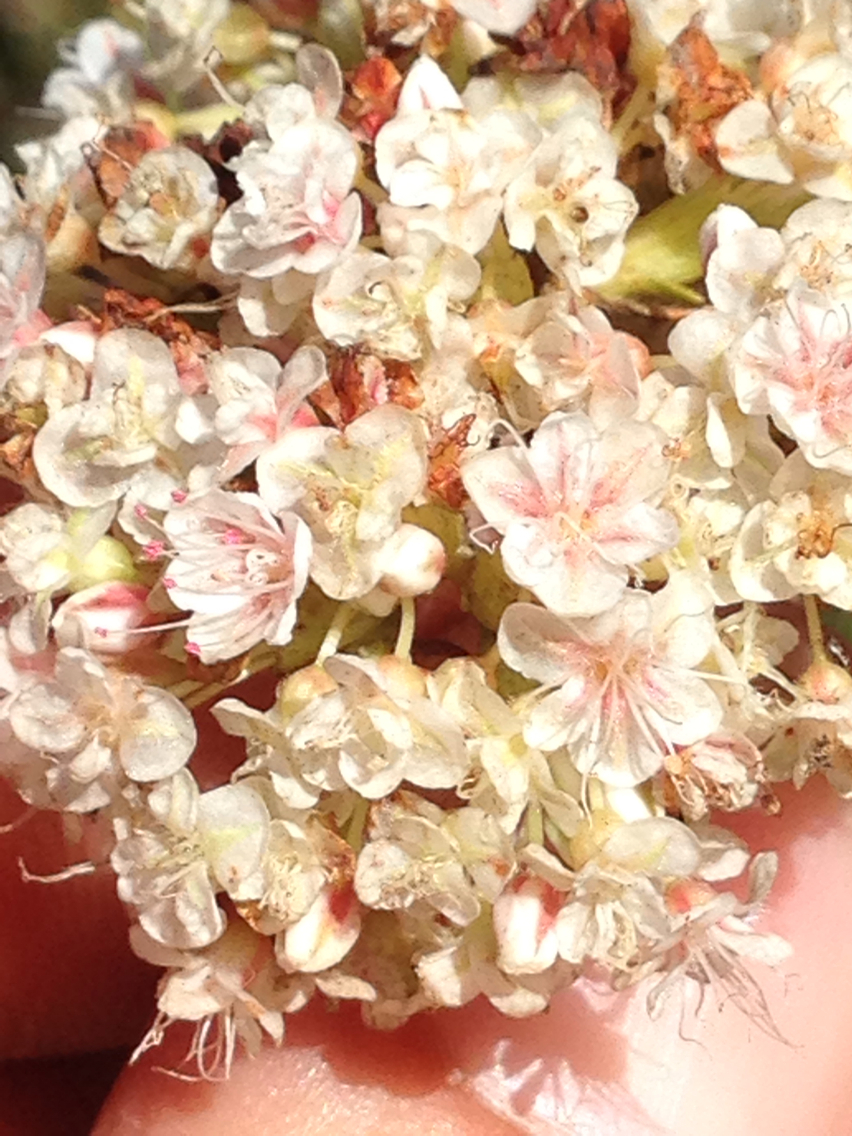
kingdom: Plantae
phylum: Tracheophyta
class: Magnoliopsida
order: Caryophyllales
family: Polygonaceae
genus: Eriogonum
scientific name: Eriogonum fasciculatum
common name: California wild buckwheat
